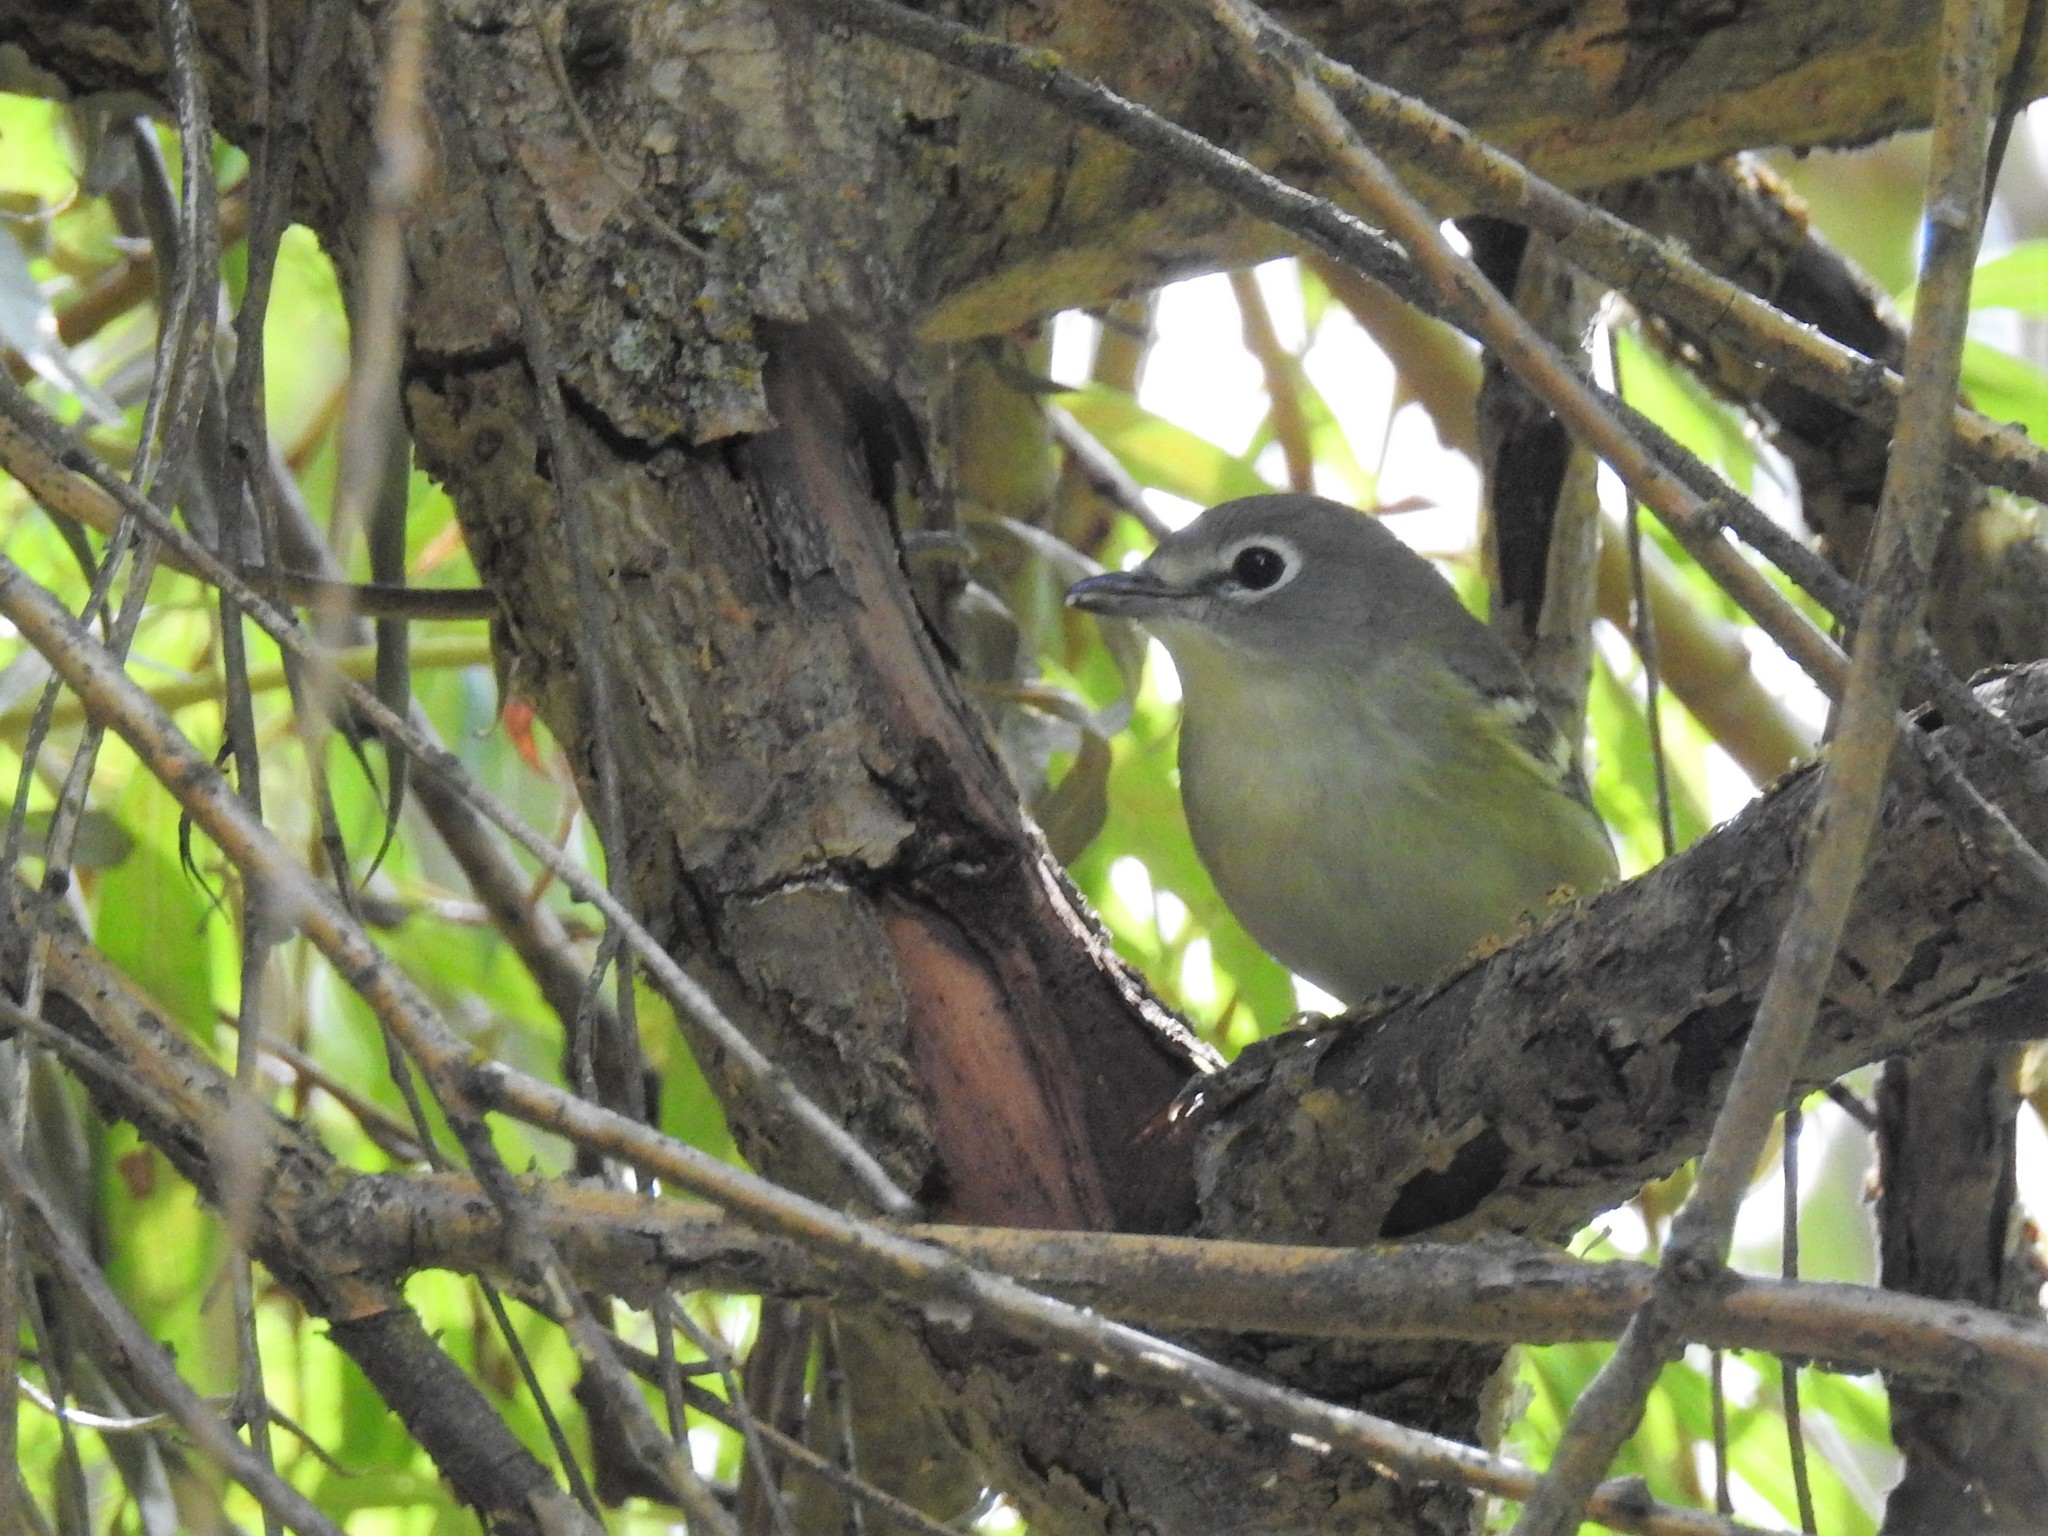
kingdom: Animalia
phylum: Chordata
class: Aves
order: Passeriformes
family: Vireonidae
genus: Vireo
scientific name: Vireo cassinii
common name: Cassin's vireo
